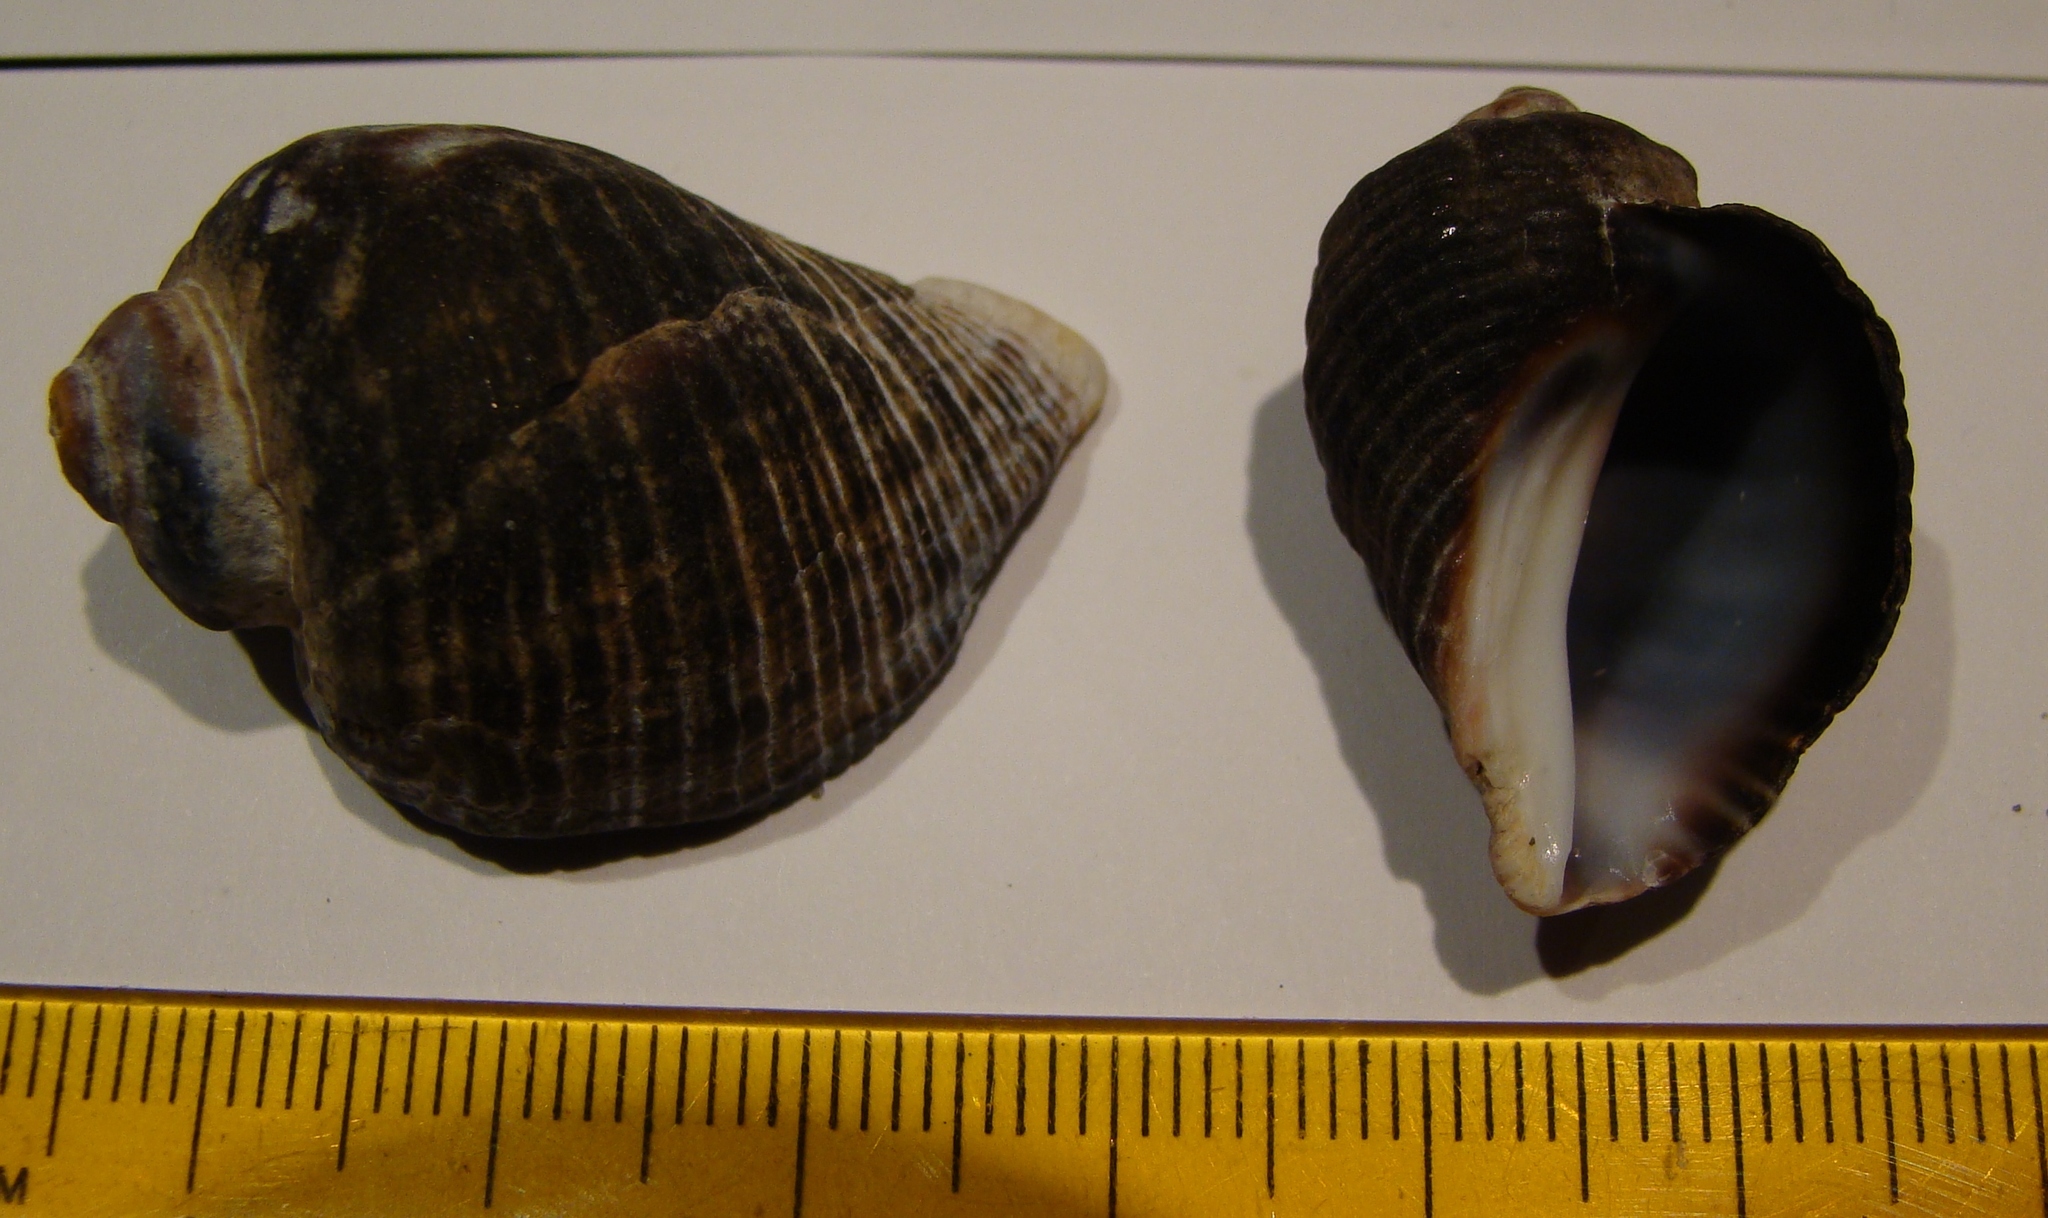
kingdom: Animalia
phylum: Mollusca
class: Gastropoda
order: Neogastropoda
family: Muricidae
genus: Haustrum
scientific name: Haustrum haustorium
